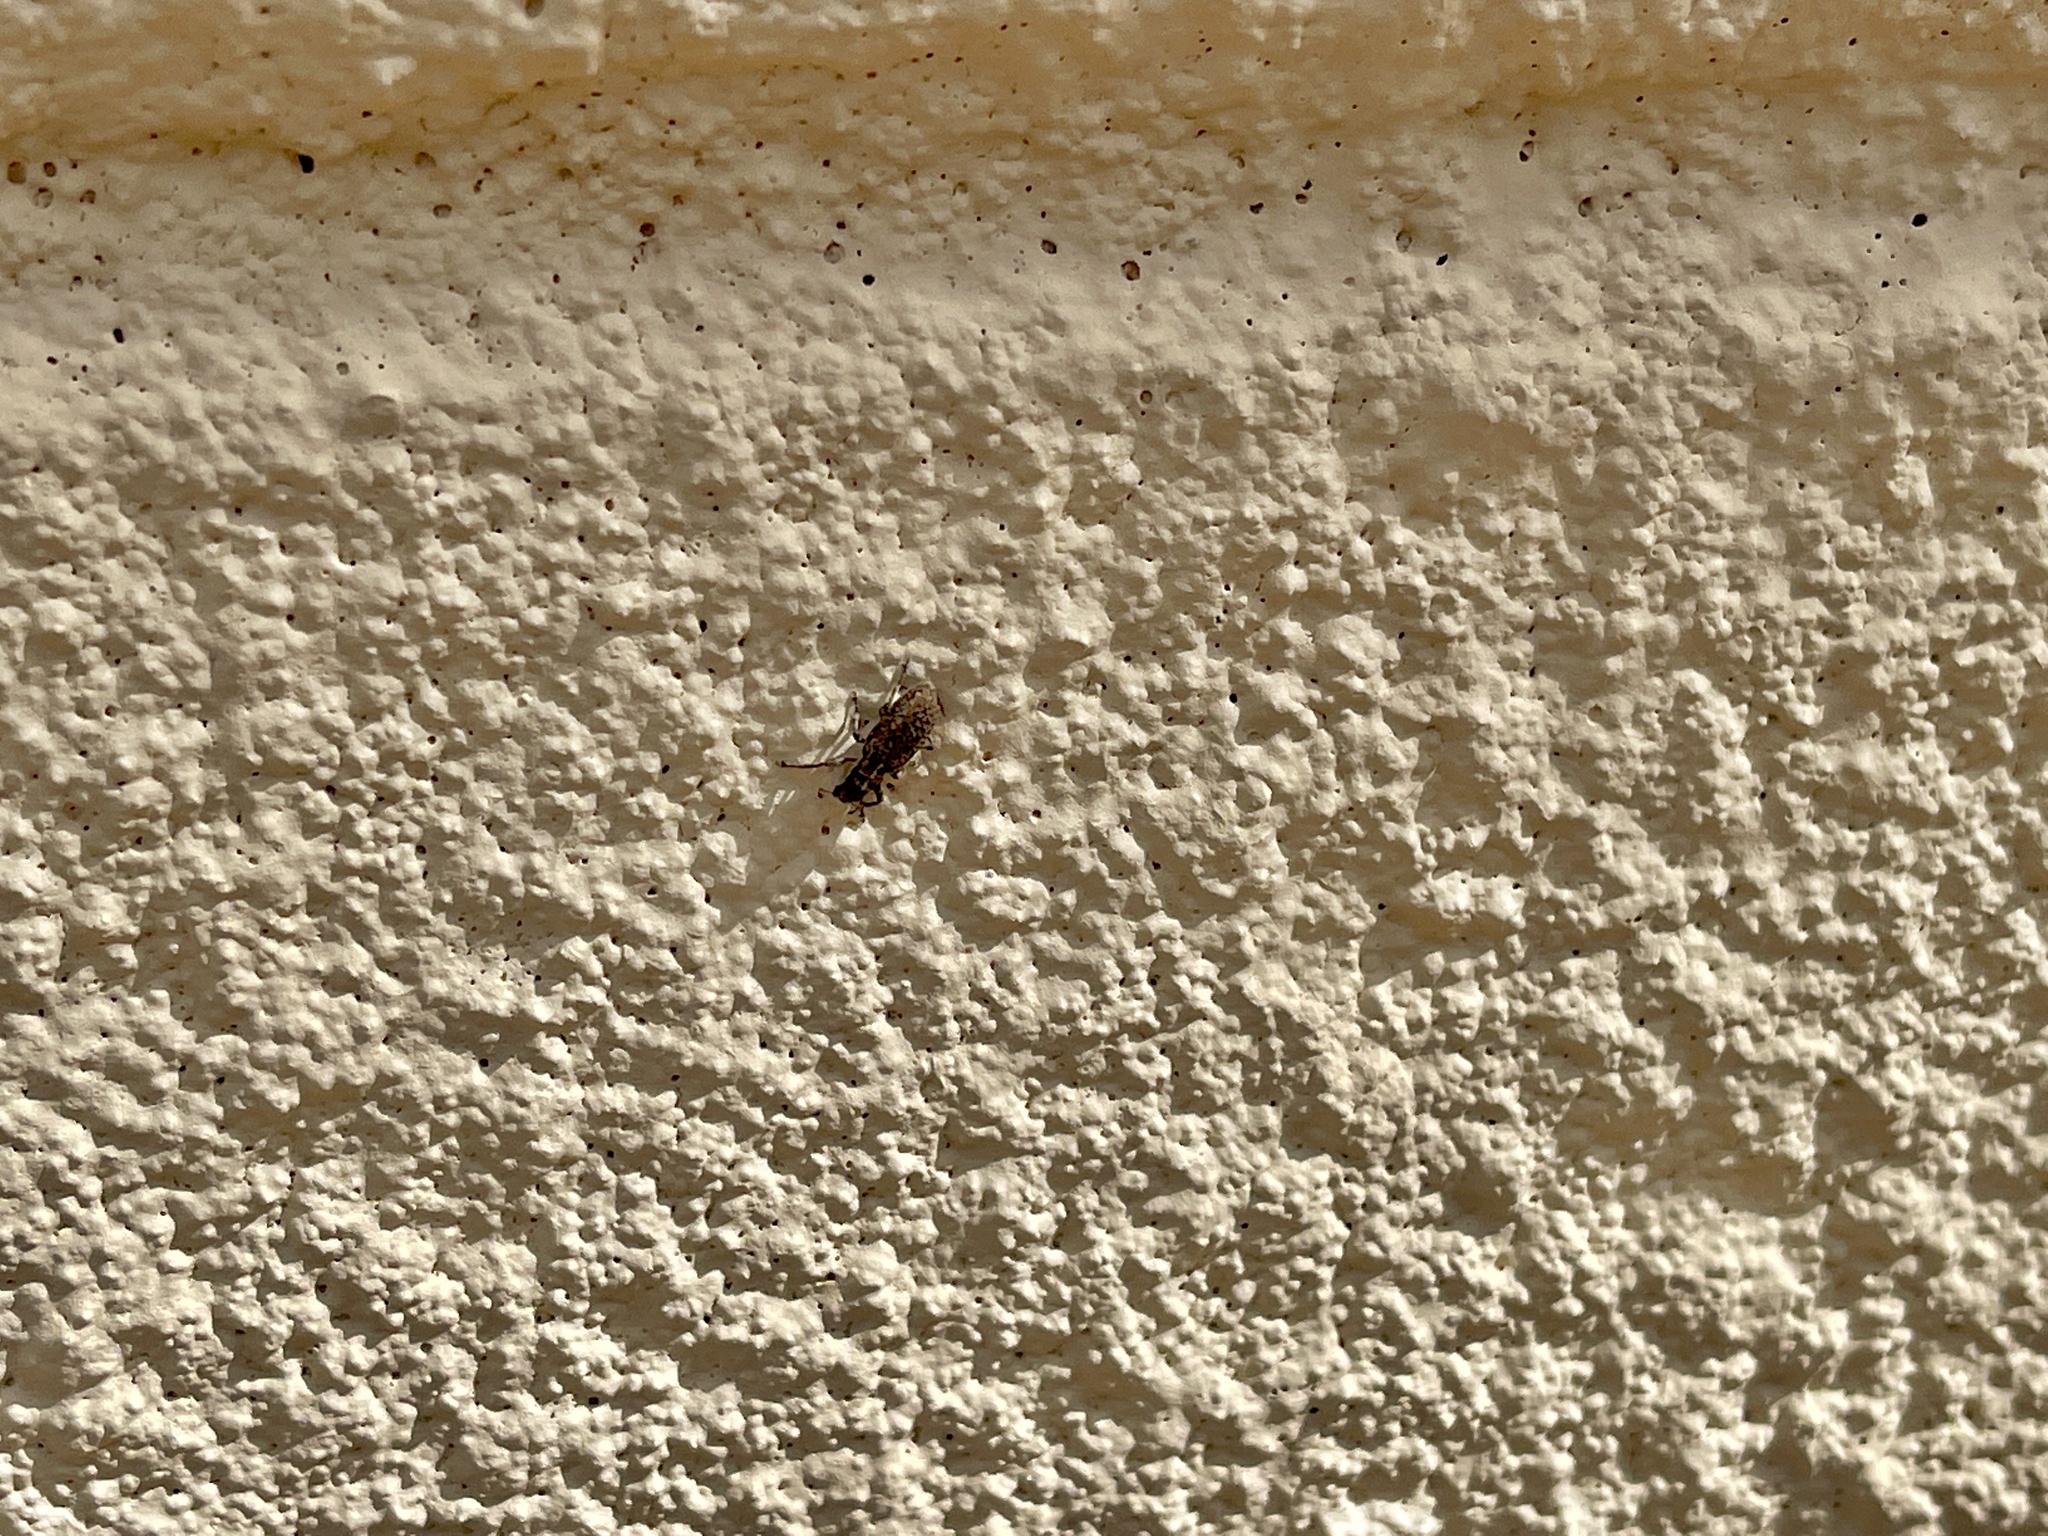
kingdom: Animalia
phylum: Arthropoda
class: Insecta
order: Coleoptera
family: Curculionidae
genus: Sitones
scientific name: Sitones californius
